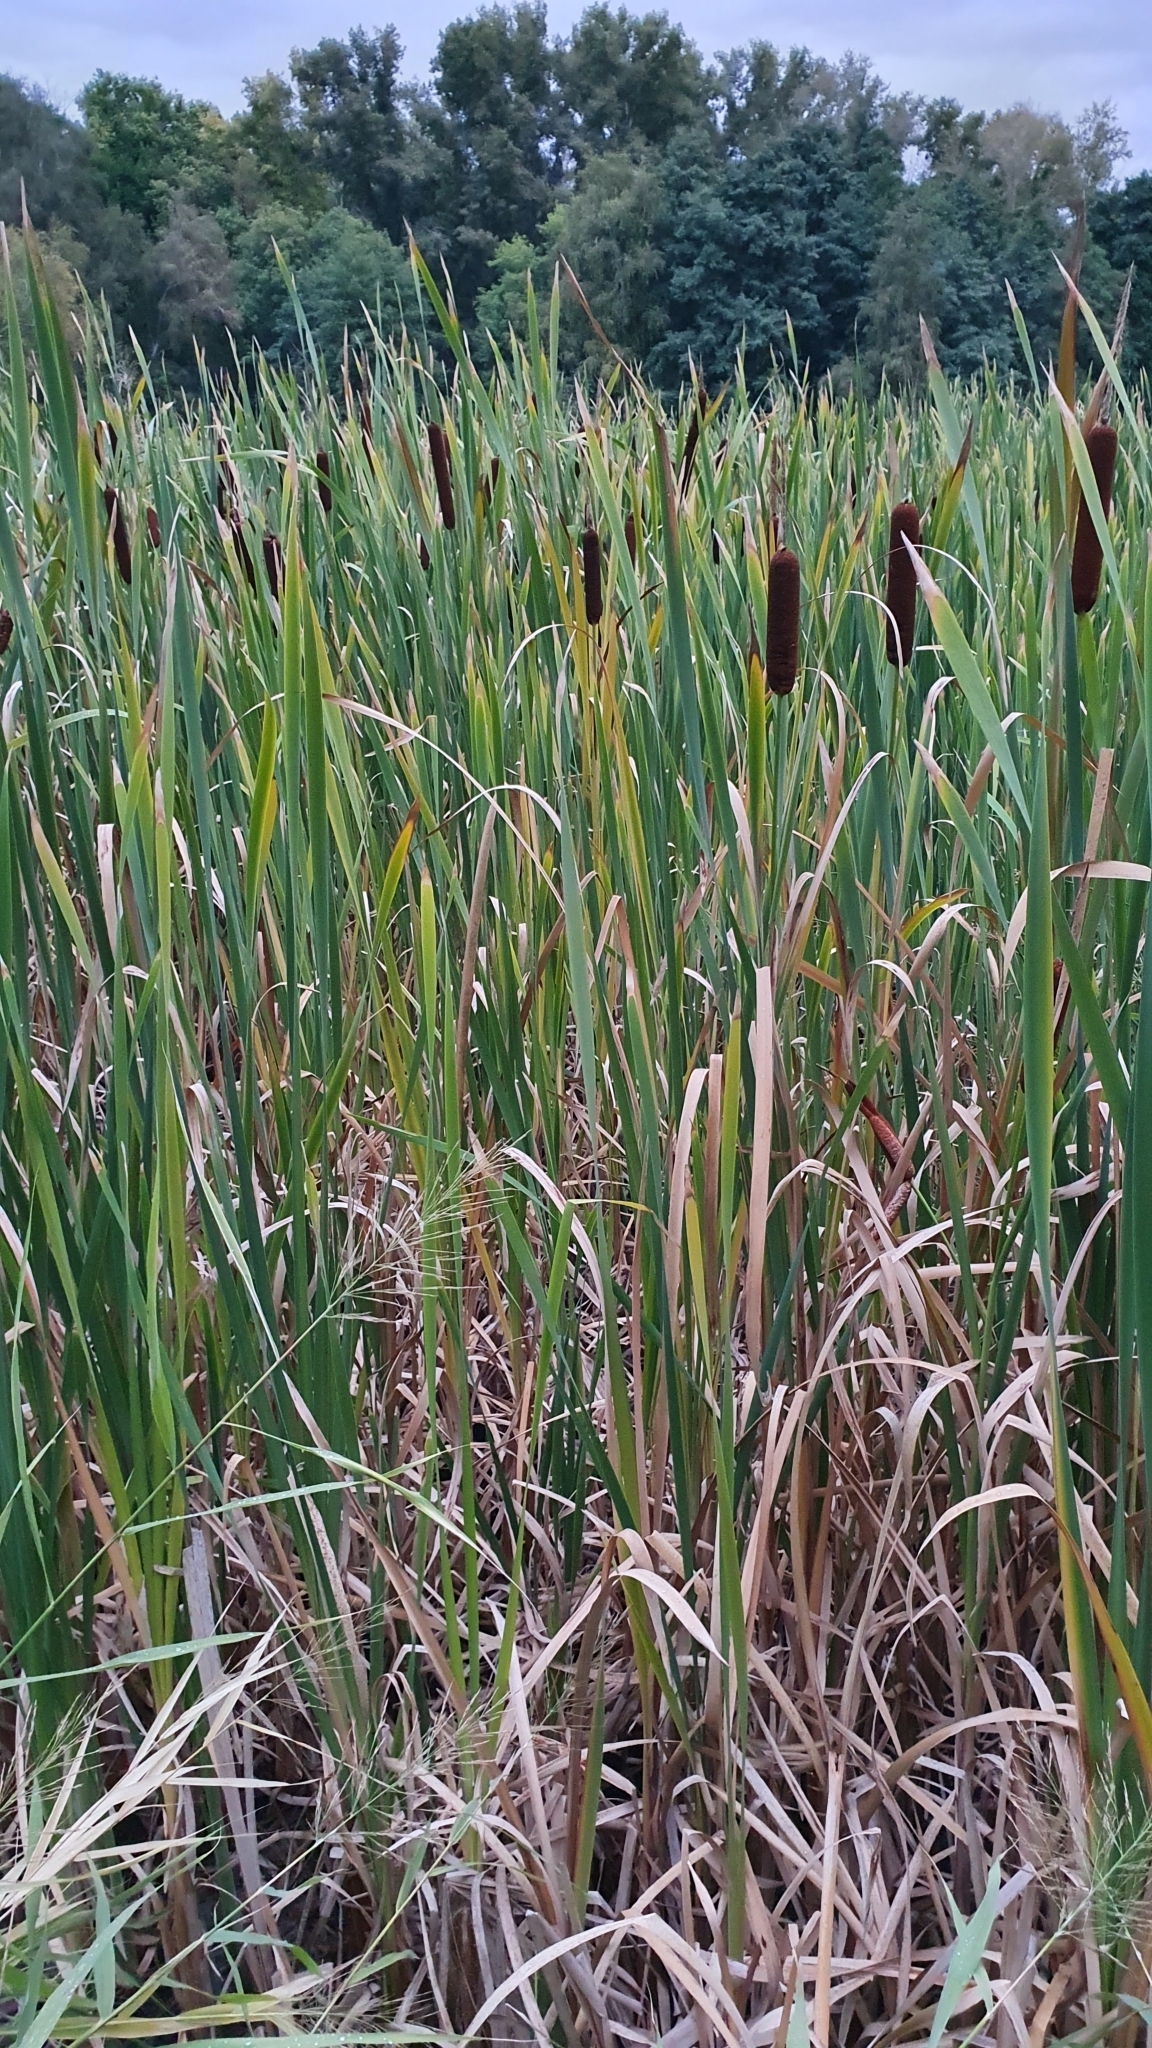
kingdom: Plantae
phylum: Tracheophyta
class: Liliopsida
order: Poales
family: Typhaceae
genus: Typha
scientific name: Typha latifolia
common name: Broadleaf cattail
